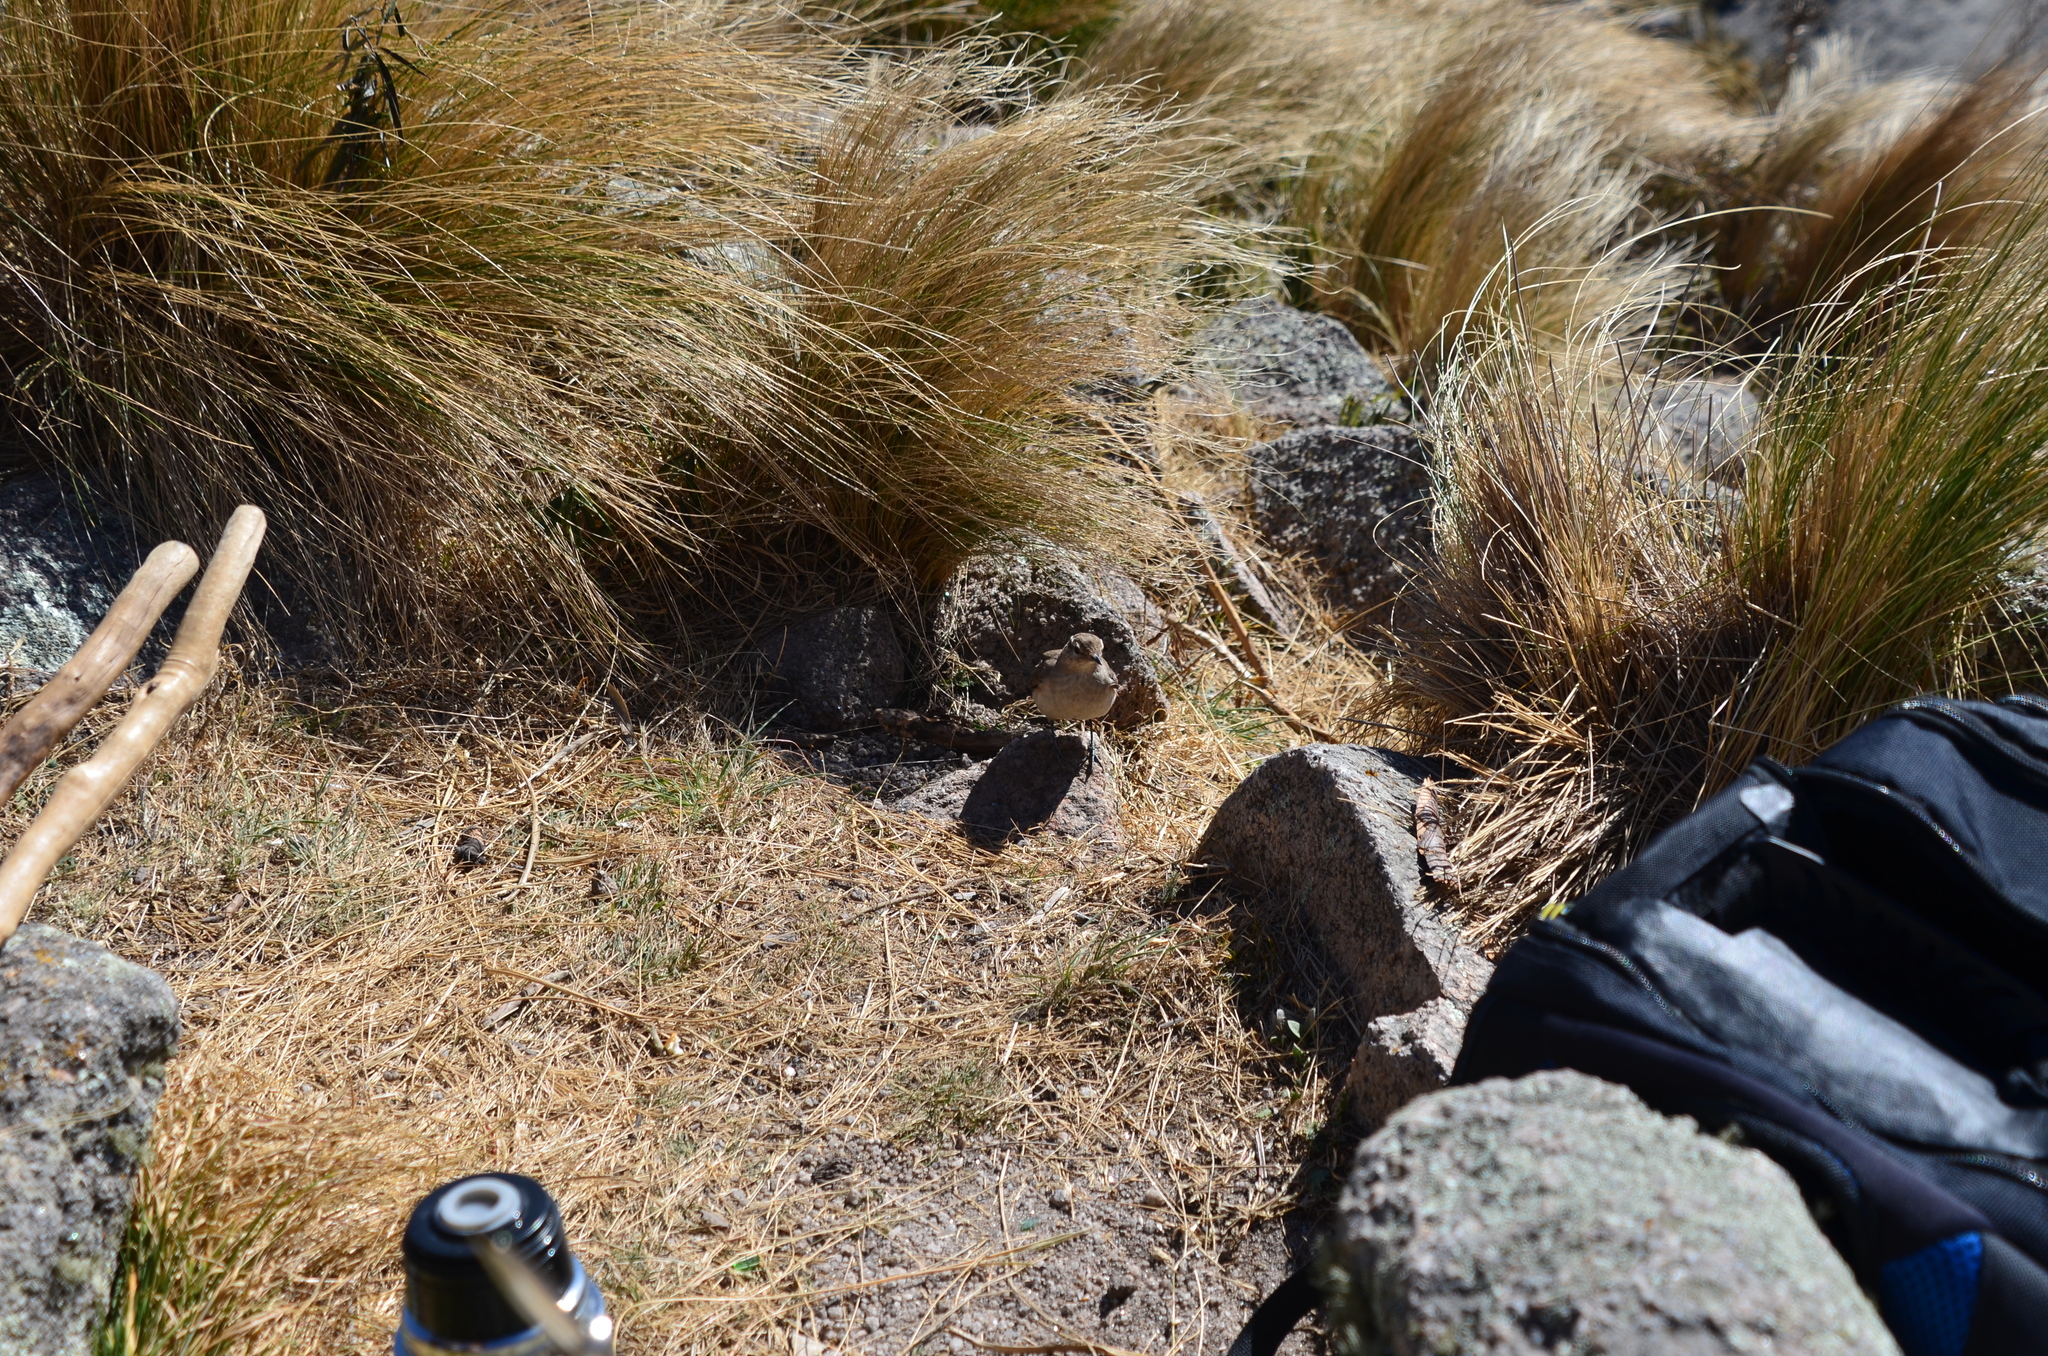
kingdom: Animalia
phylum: Chordata
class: Aves
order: Passeriformes
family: Furnariidae
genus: Geositta
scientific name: Geositta rufipennis
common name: Rufous-banded miner
